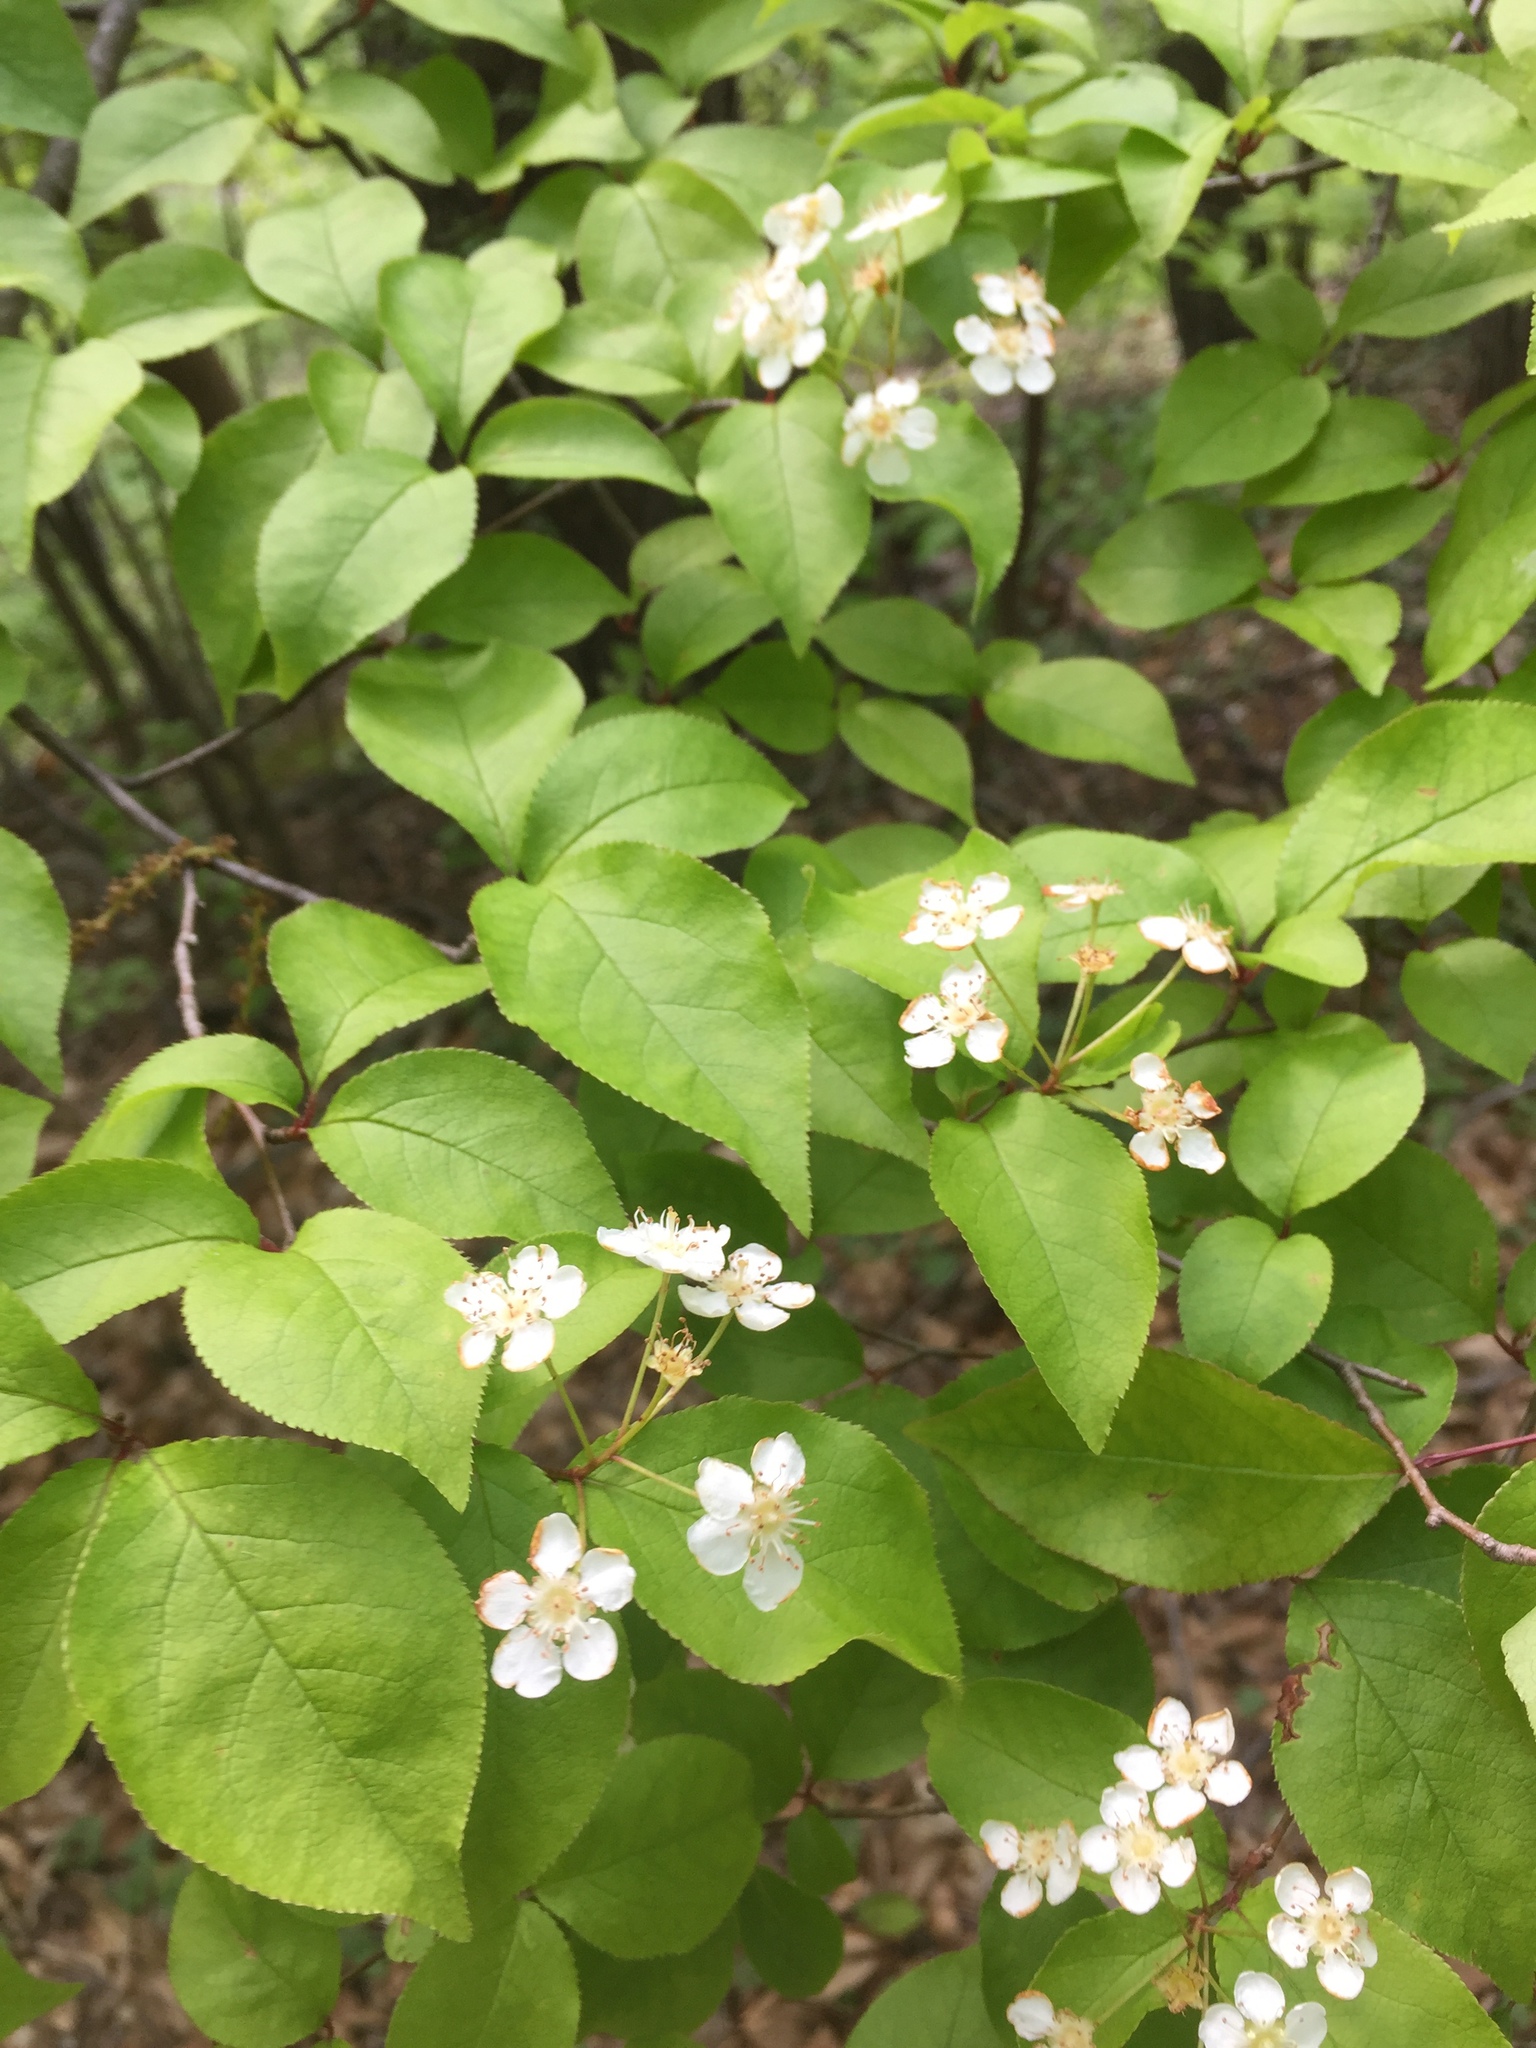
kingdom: Plantae
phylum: Tracheophyta
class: Magnoliopsida
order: Rosales
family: Rosaceae
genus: Pourthiaea
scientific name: Pourthiaea villosa
